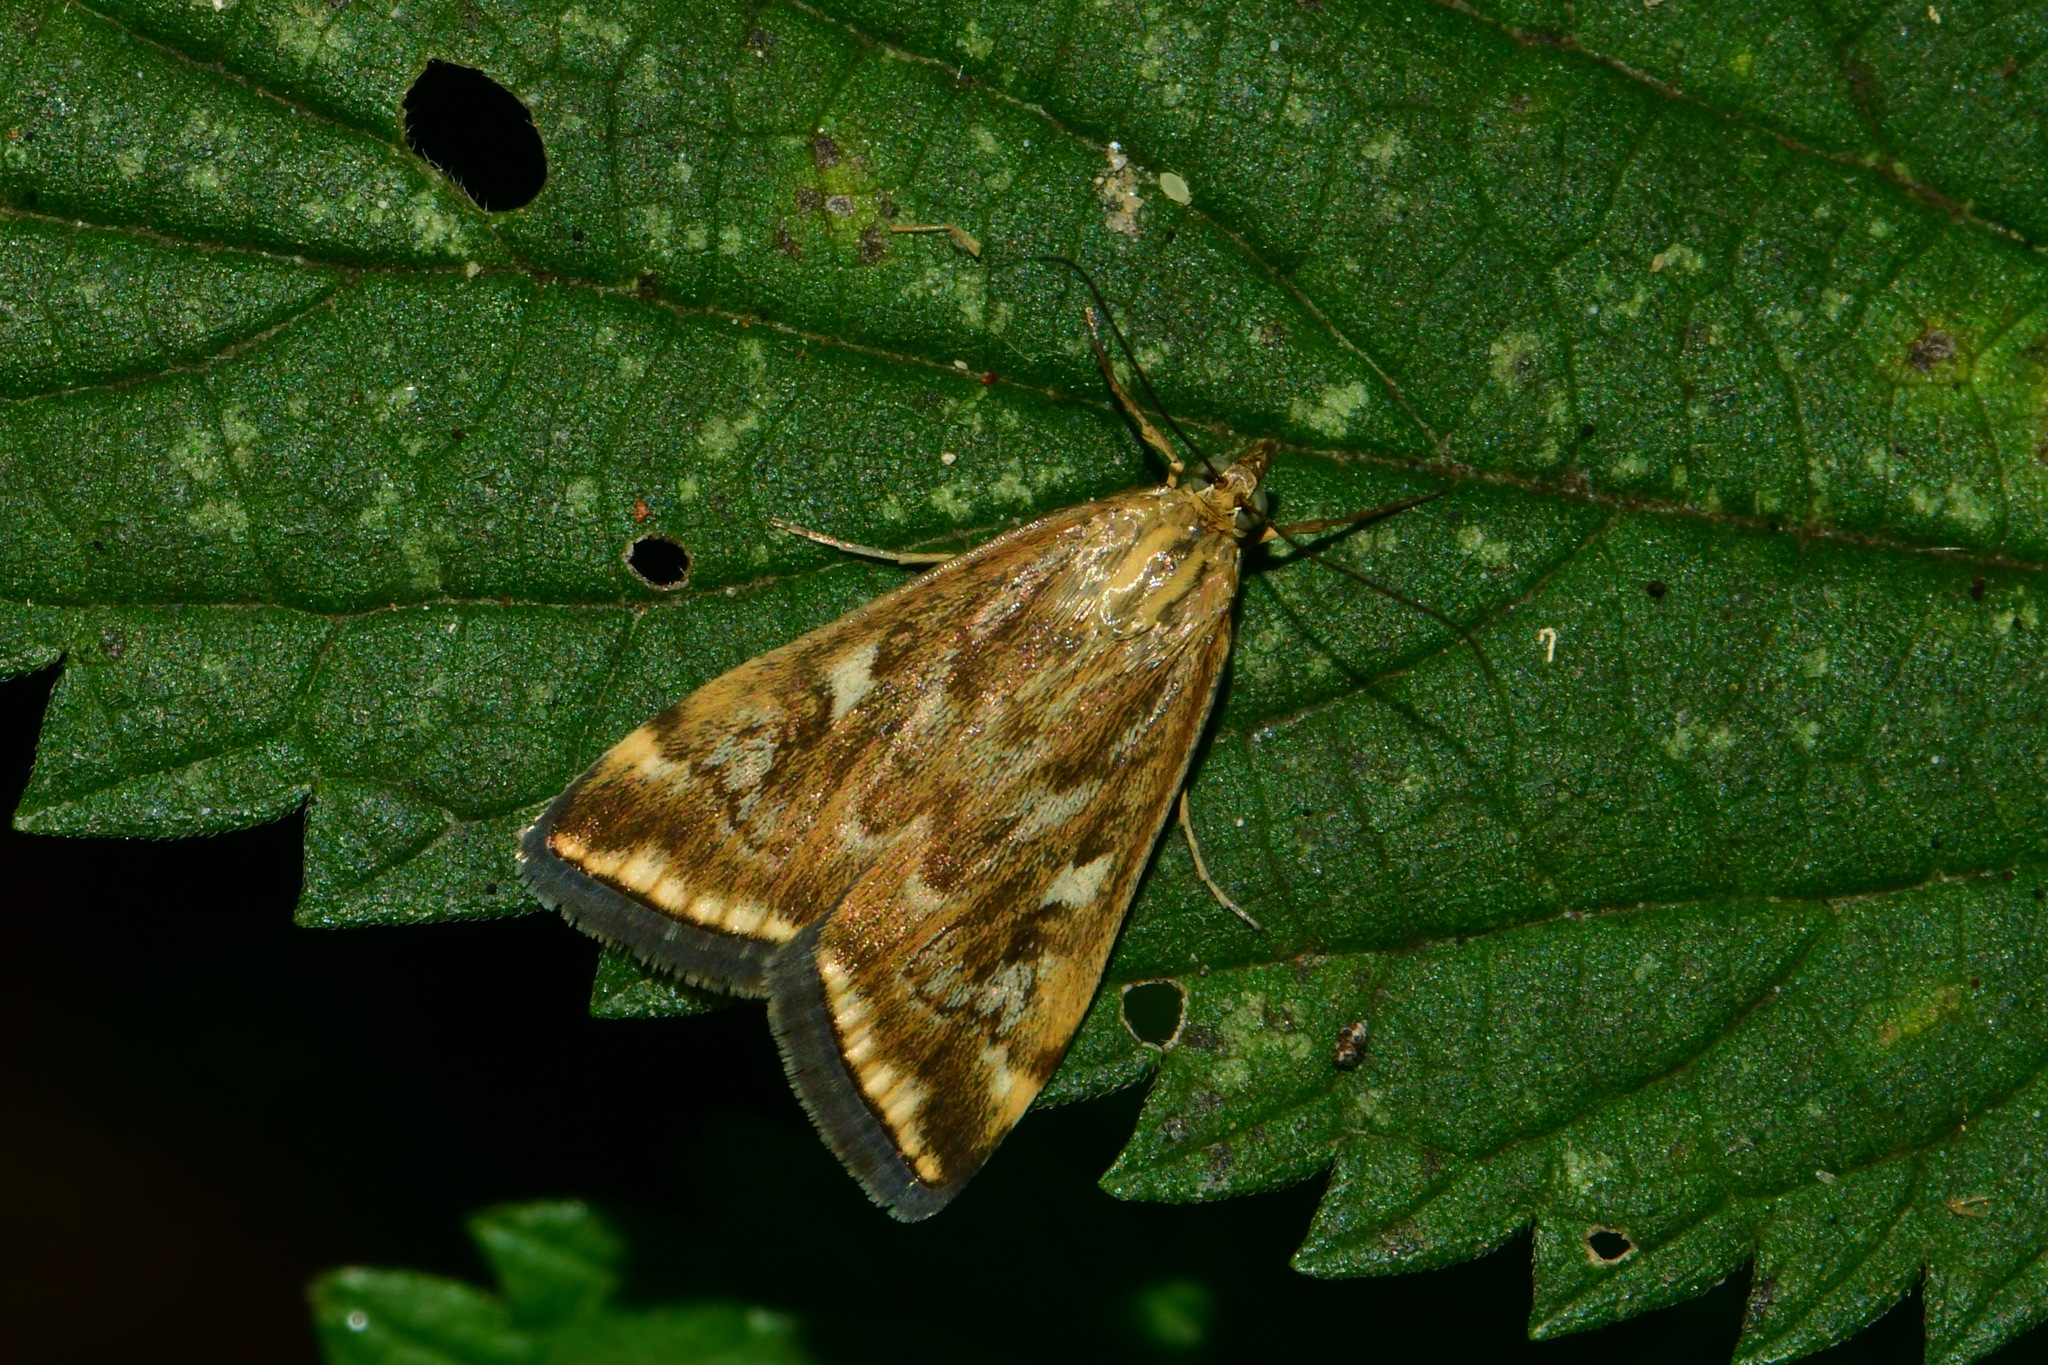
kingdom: Animalia
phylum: Arthropoda
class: Insecta
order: Lepidoptera
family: Crambidae
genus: Loxostege
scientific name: Loxostege sticticalis
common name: Crambid moth
